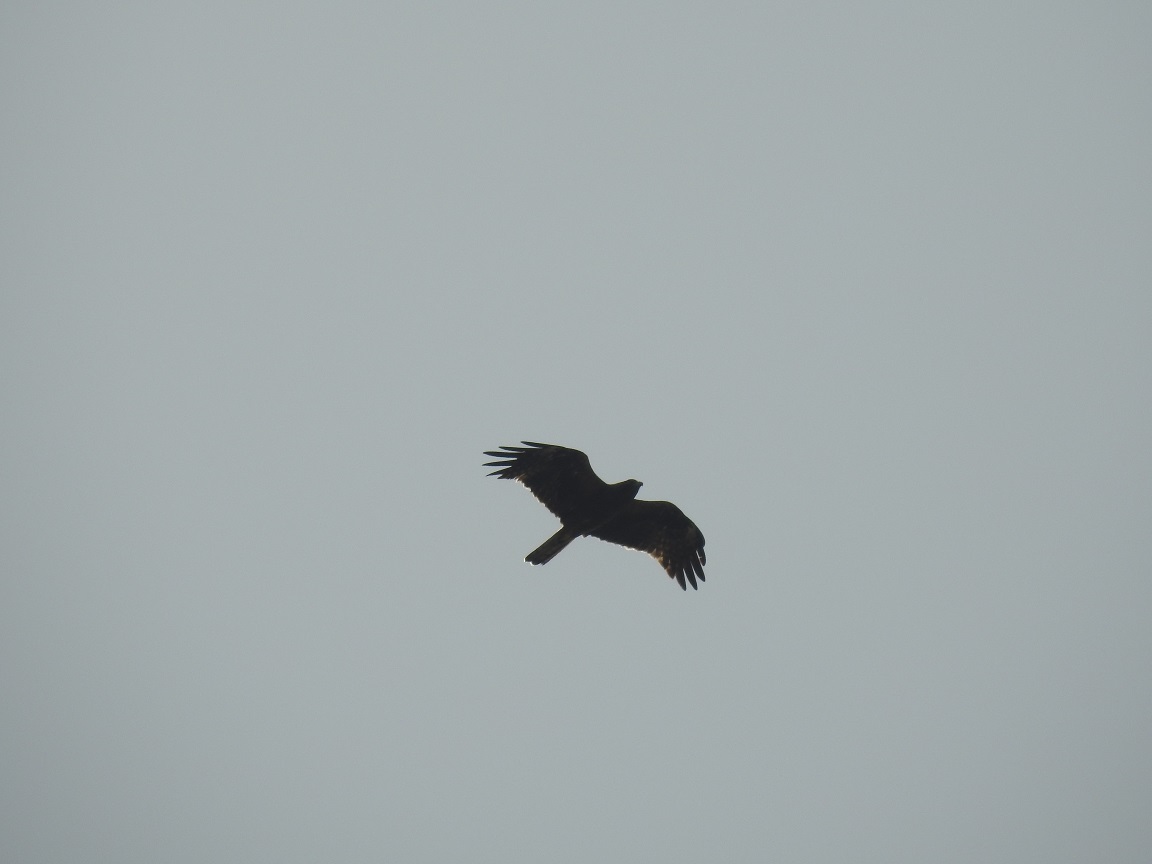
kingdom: Animalia
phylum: Chordata
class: Aves
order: Accipitriformes
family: Accipitridae
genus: Hieraaetus
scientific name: Hieraaetus pennatus
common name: Booted eagle
